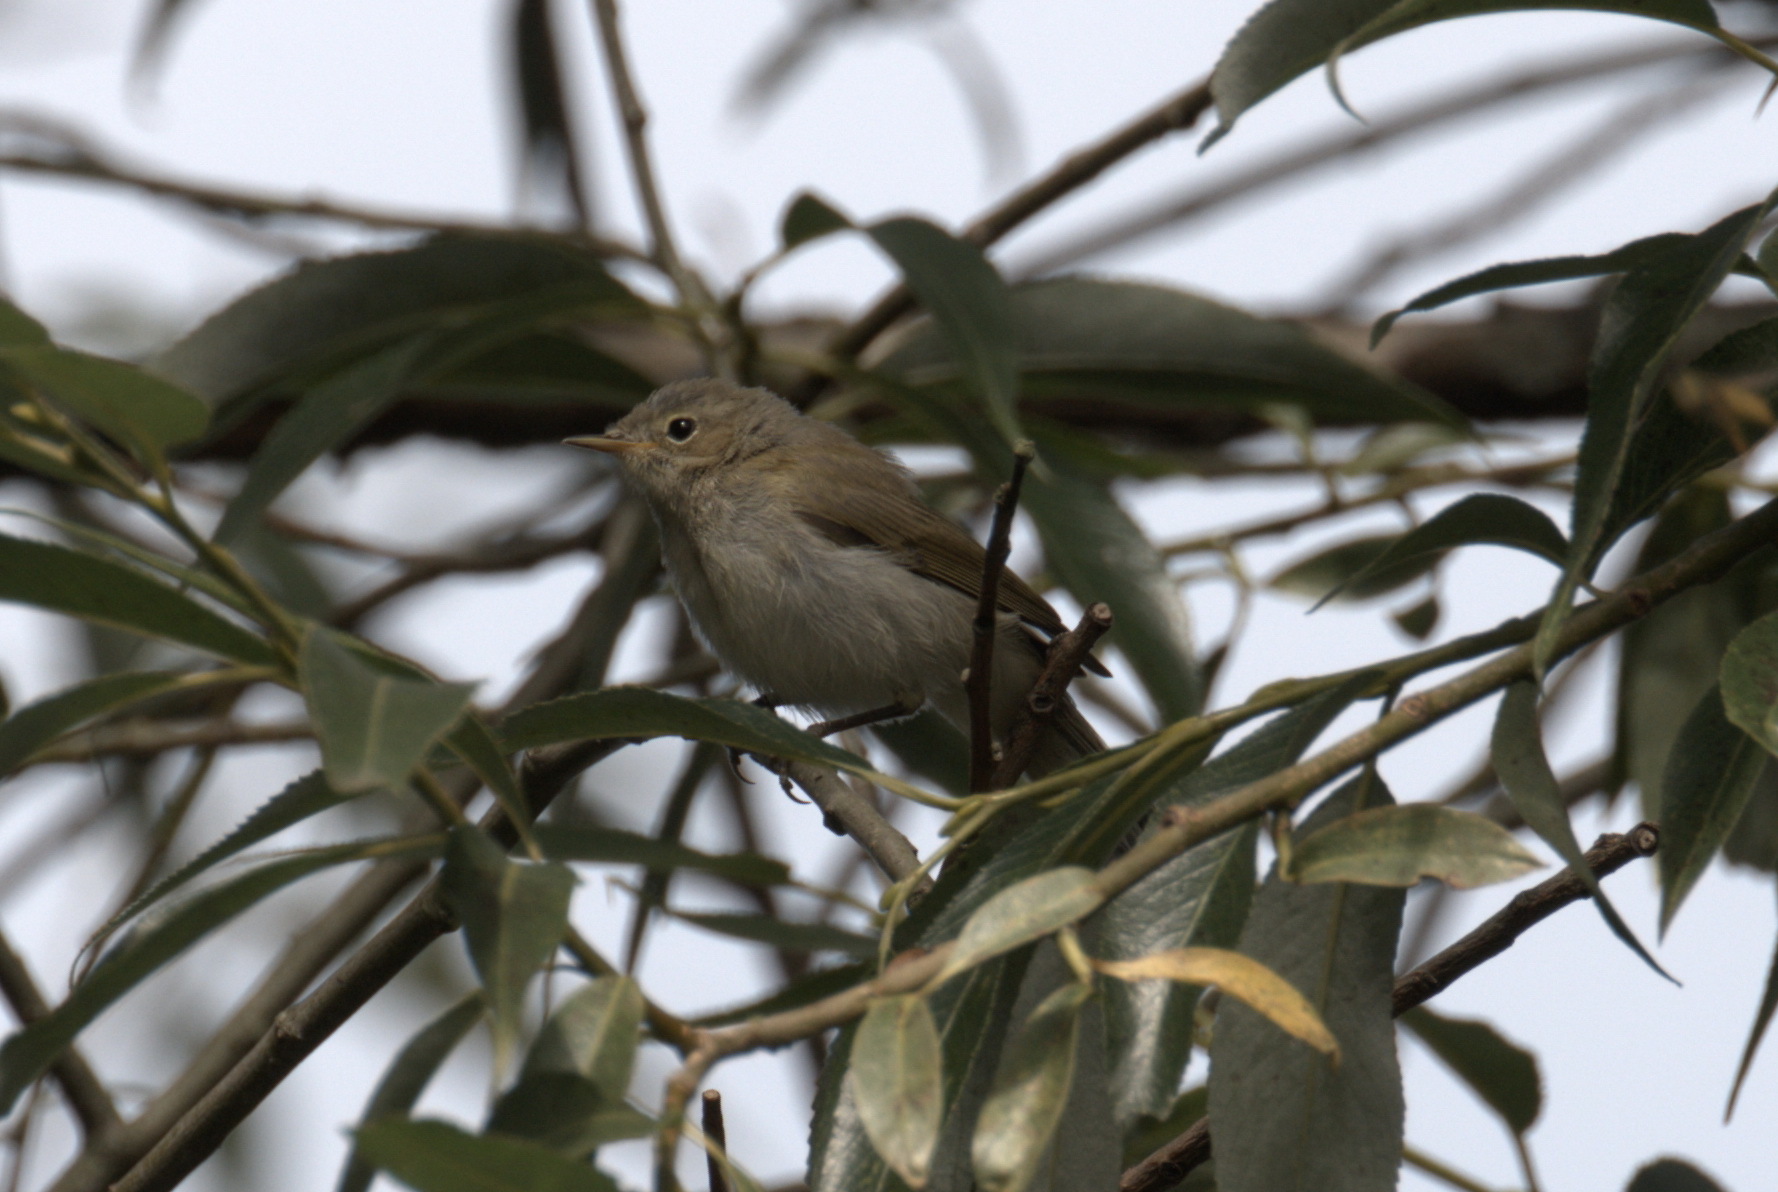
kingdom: Animalia
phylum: Chordata
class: Aves
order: Passeriformes
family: Phylloscopidae
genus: Phylloscopus
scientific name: Phylloscopus collybita
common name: Common chiffchaff
